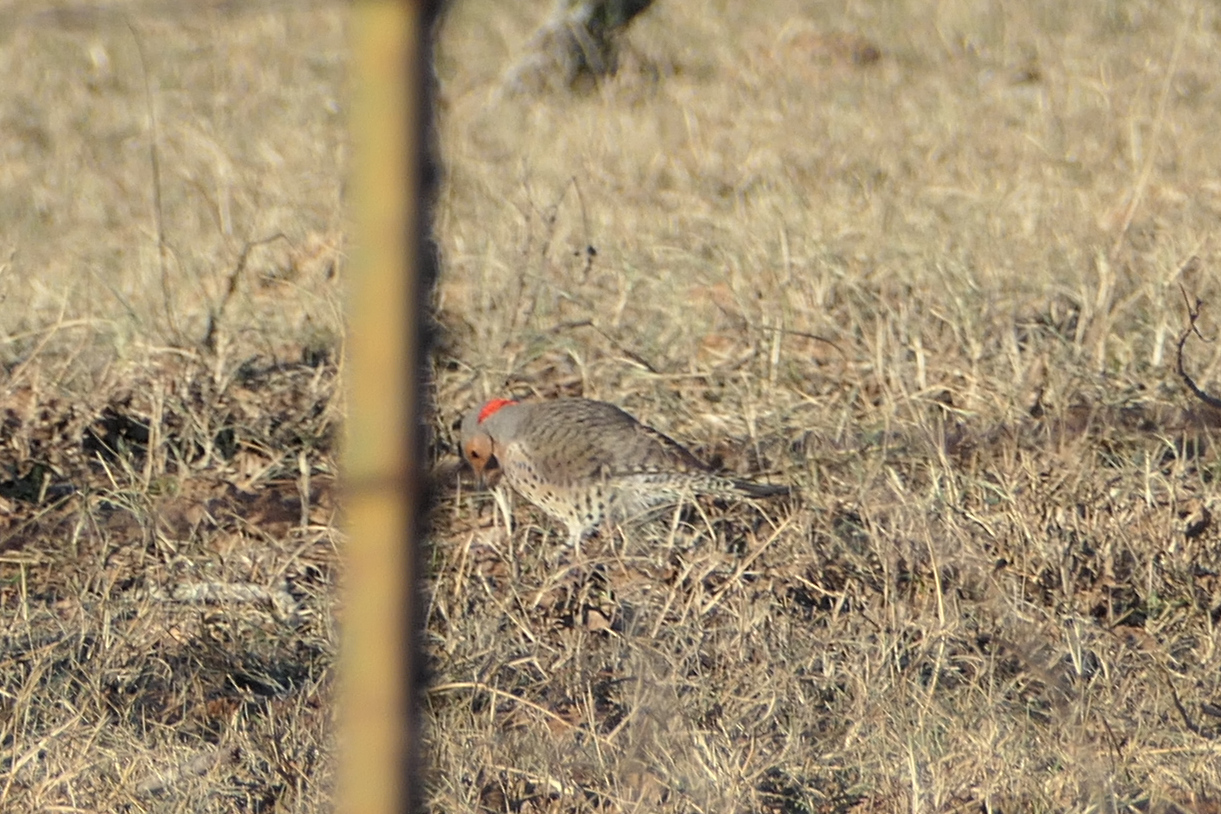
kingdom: Animalia
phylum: Chordata
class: Aves
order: Piciformes
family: Picidae
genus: Colaptes
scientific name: Colaptes auratus
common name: Northern flicker
